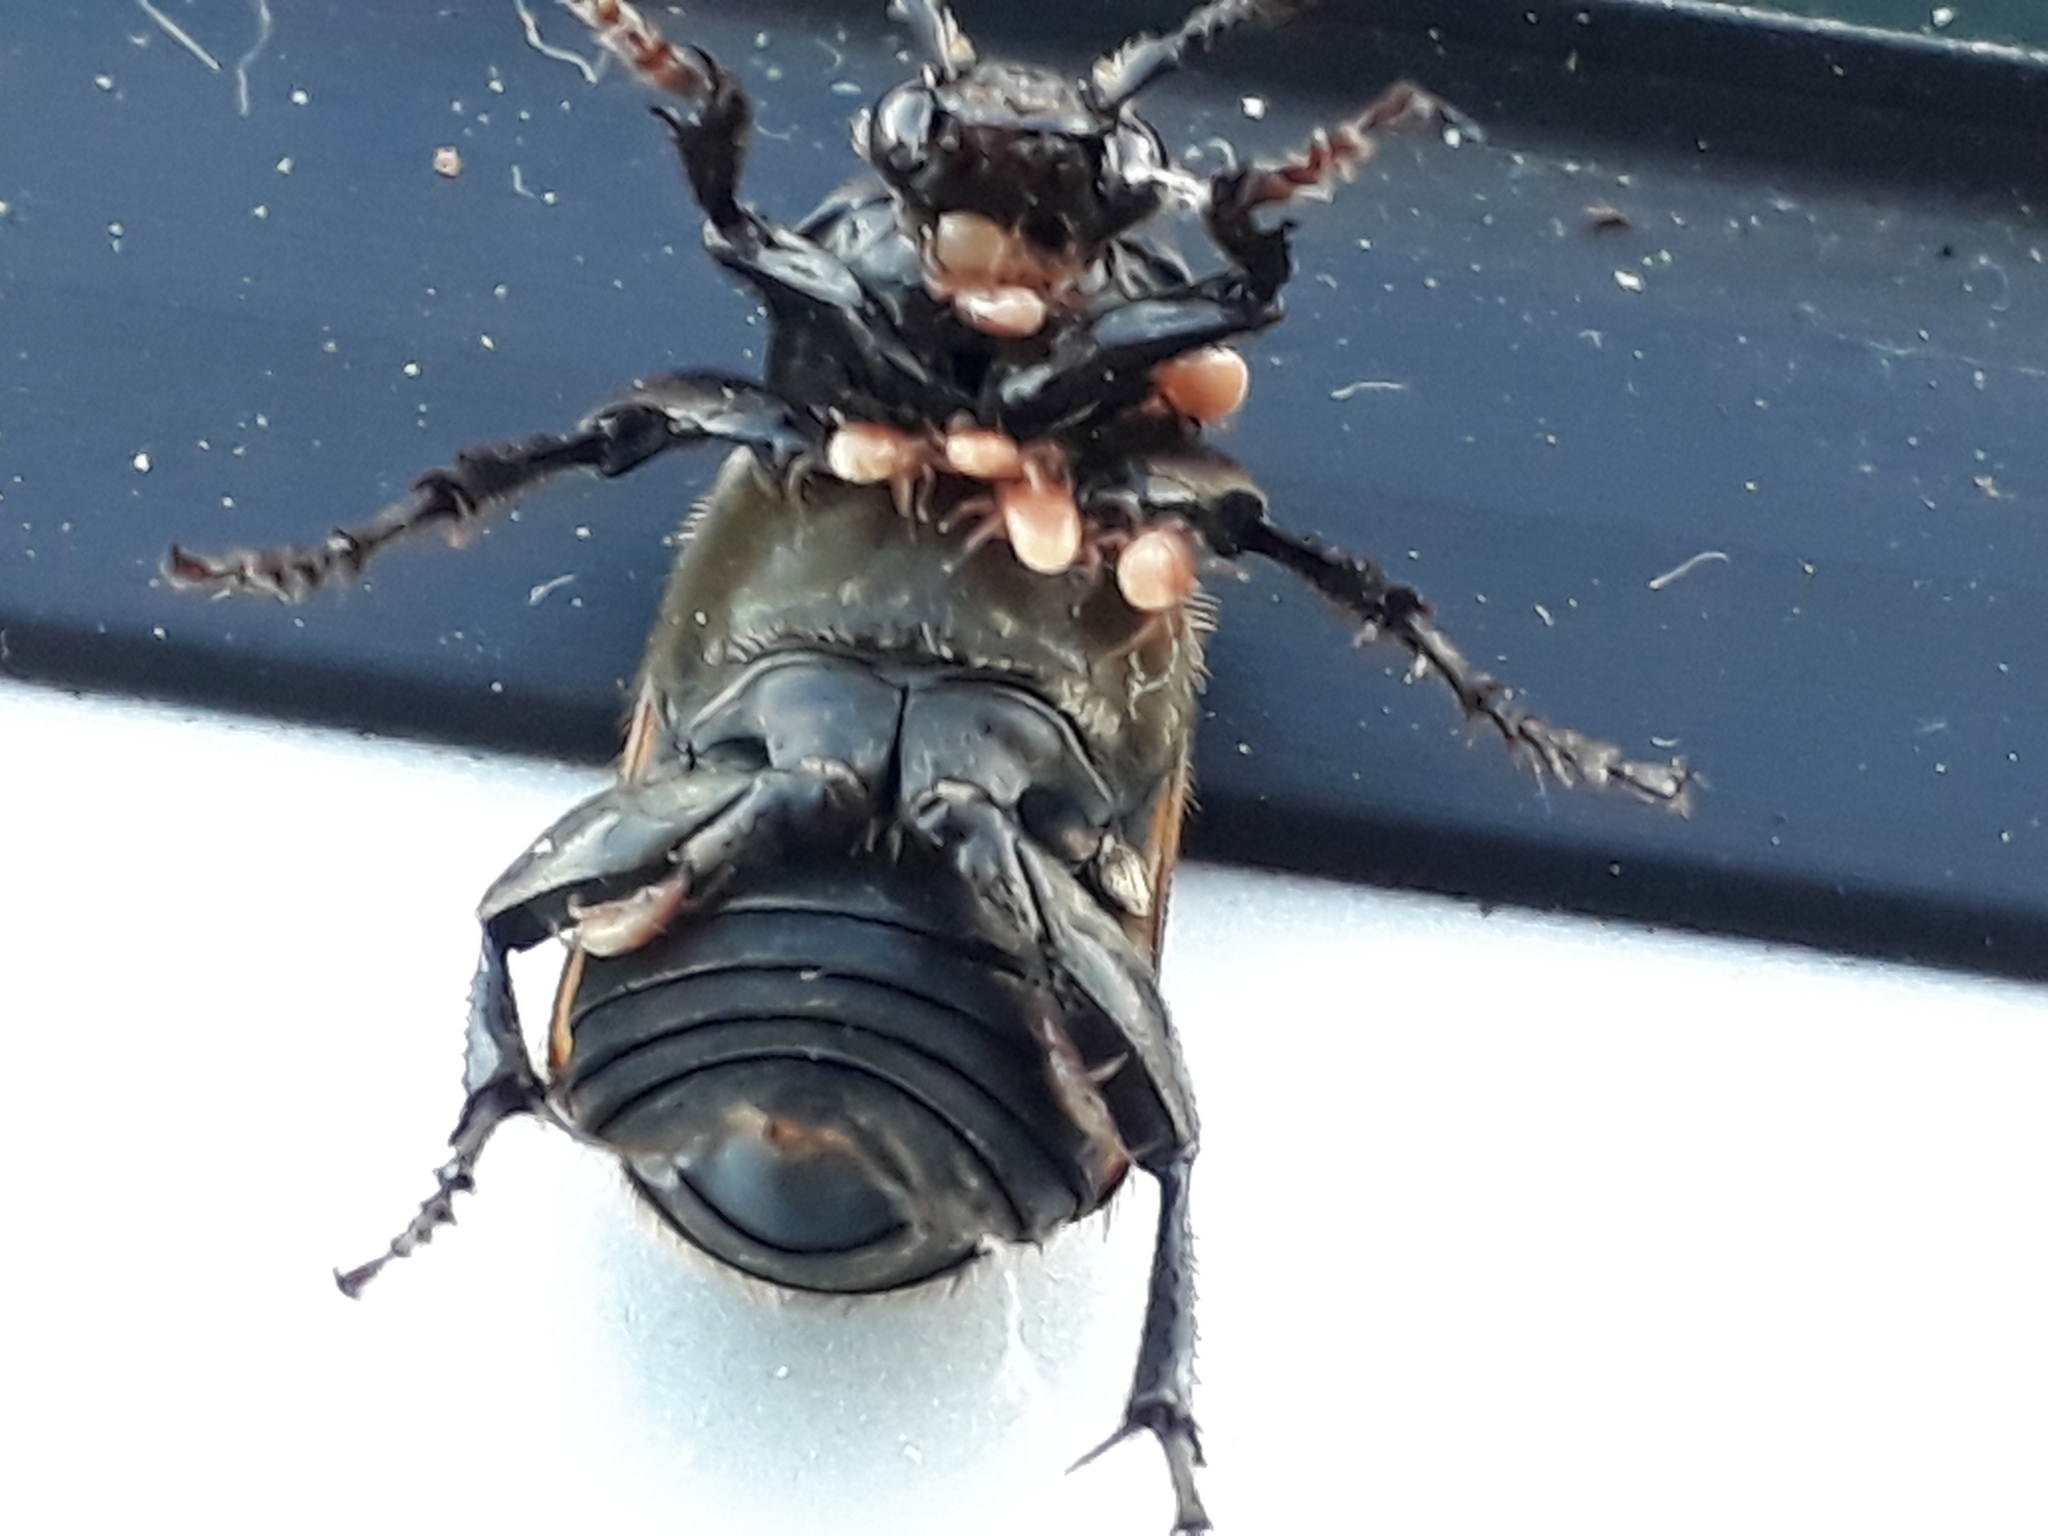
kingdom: Animalia
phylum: Arthropoda
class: Insecta
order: Coleoptera
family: Staphylinidae
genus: Nicrophorus
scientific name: Nicrophorus interruptus
